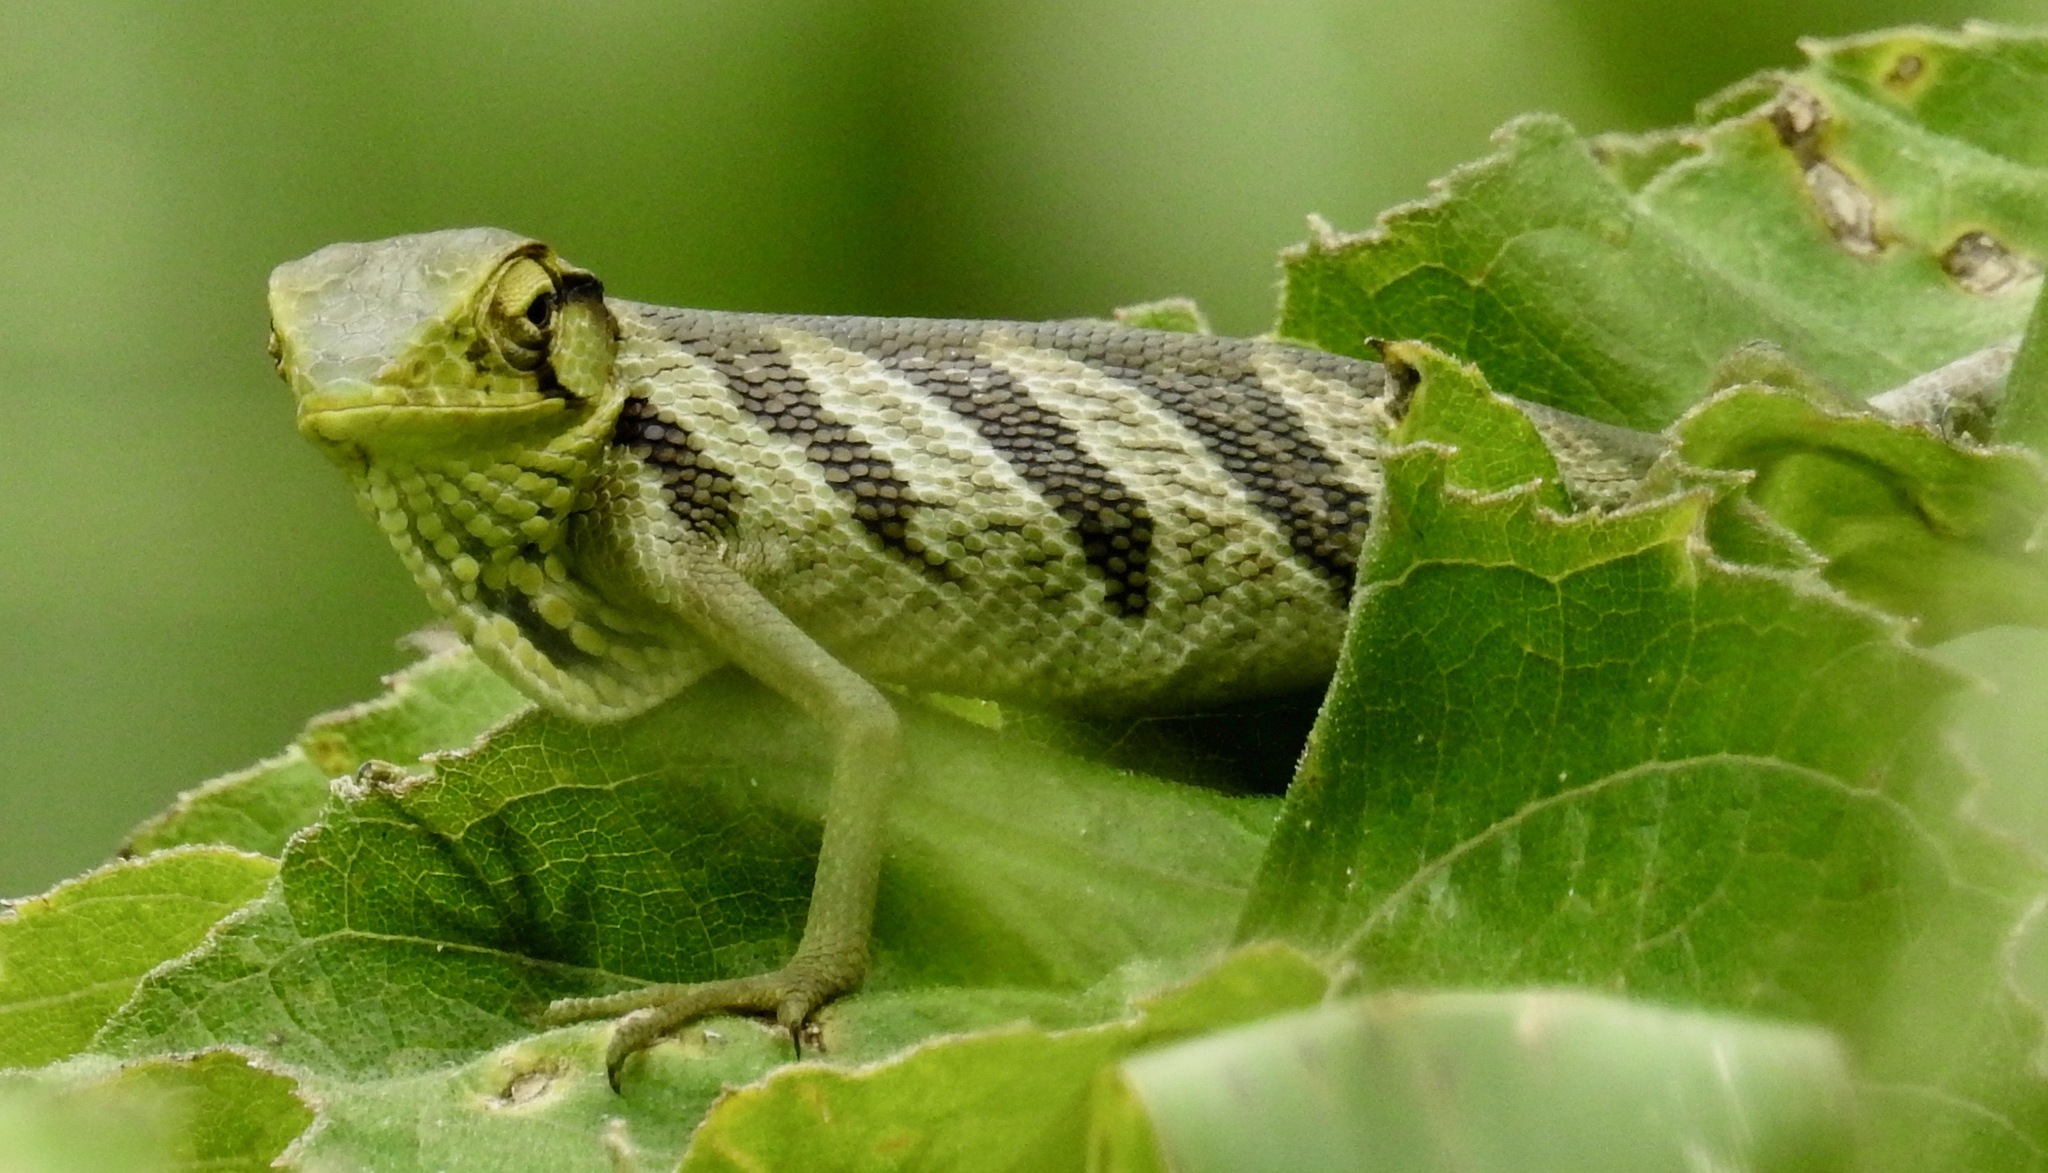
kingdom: Animalia
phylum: Chordata
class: Squamata
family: Polychrotidae
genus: Polychrus
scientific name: Polychrus gutturosus
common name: Berthold's bush anole
